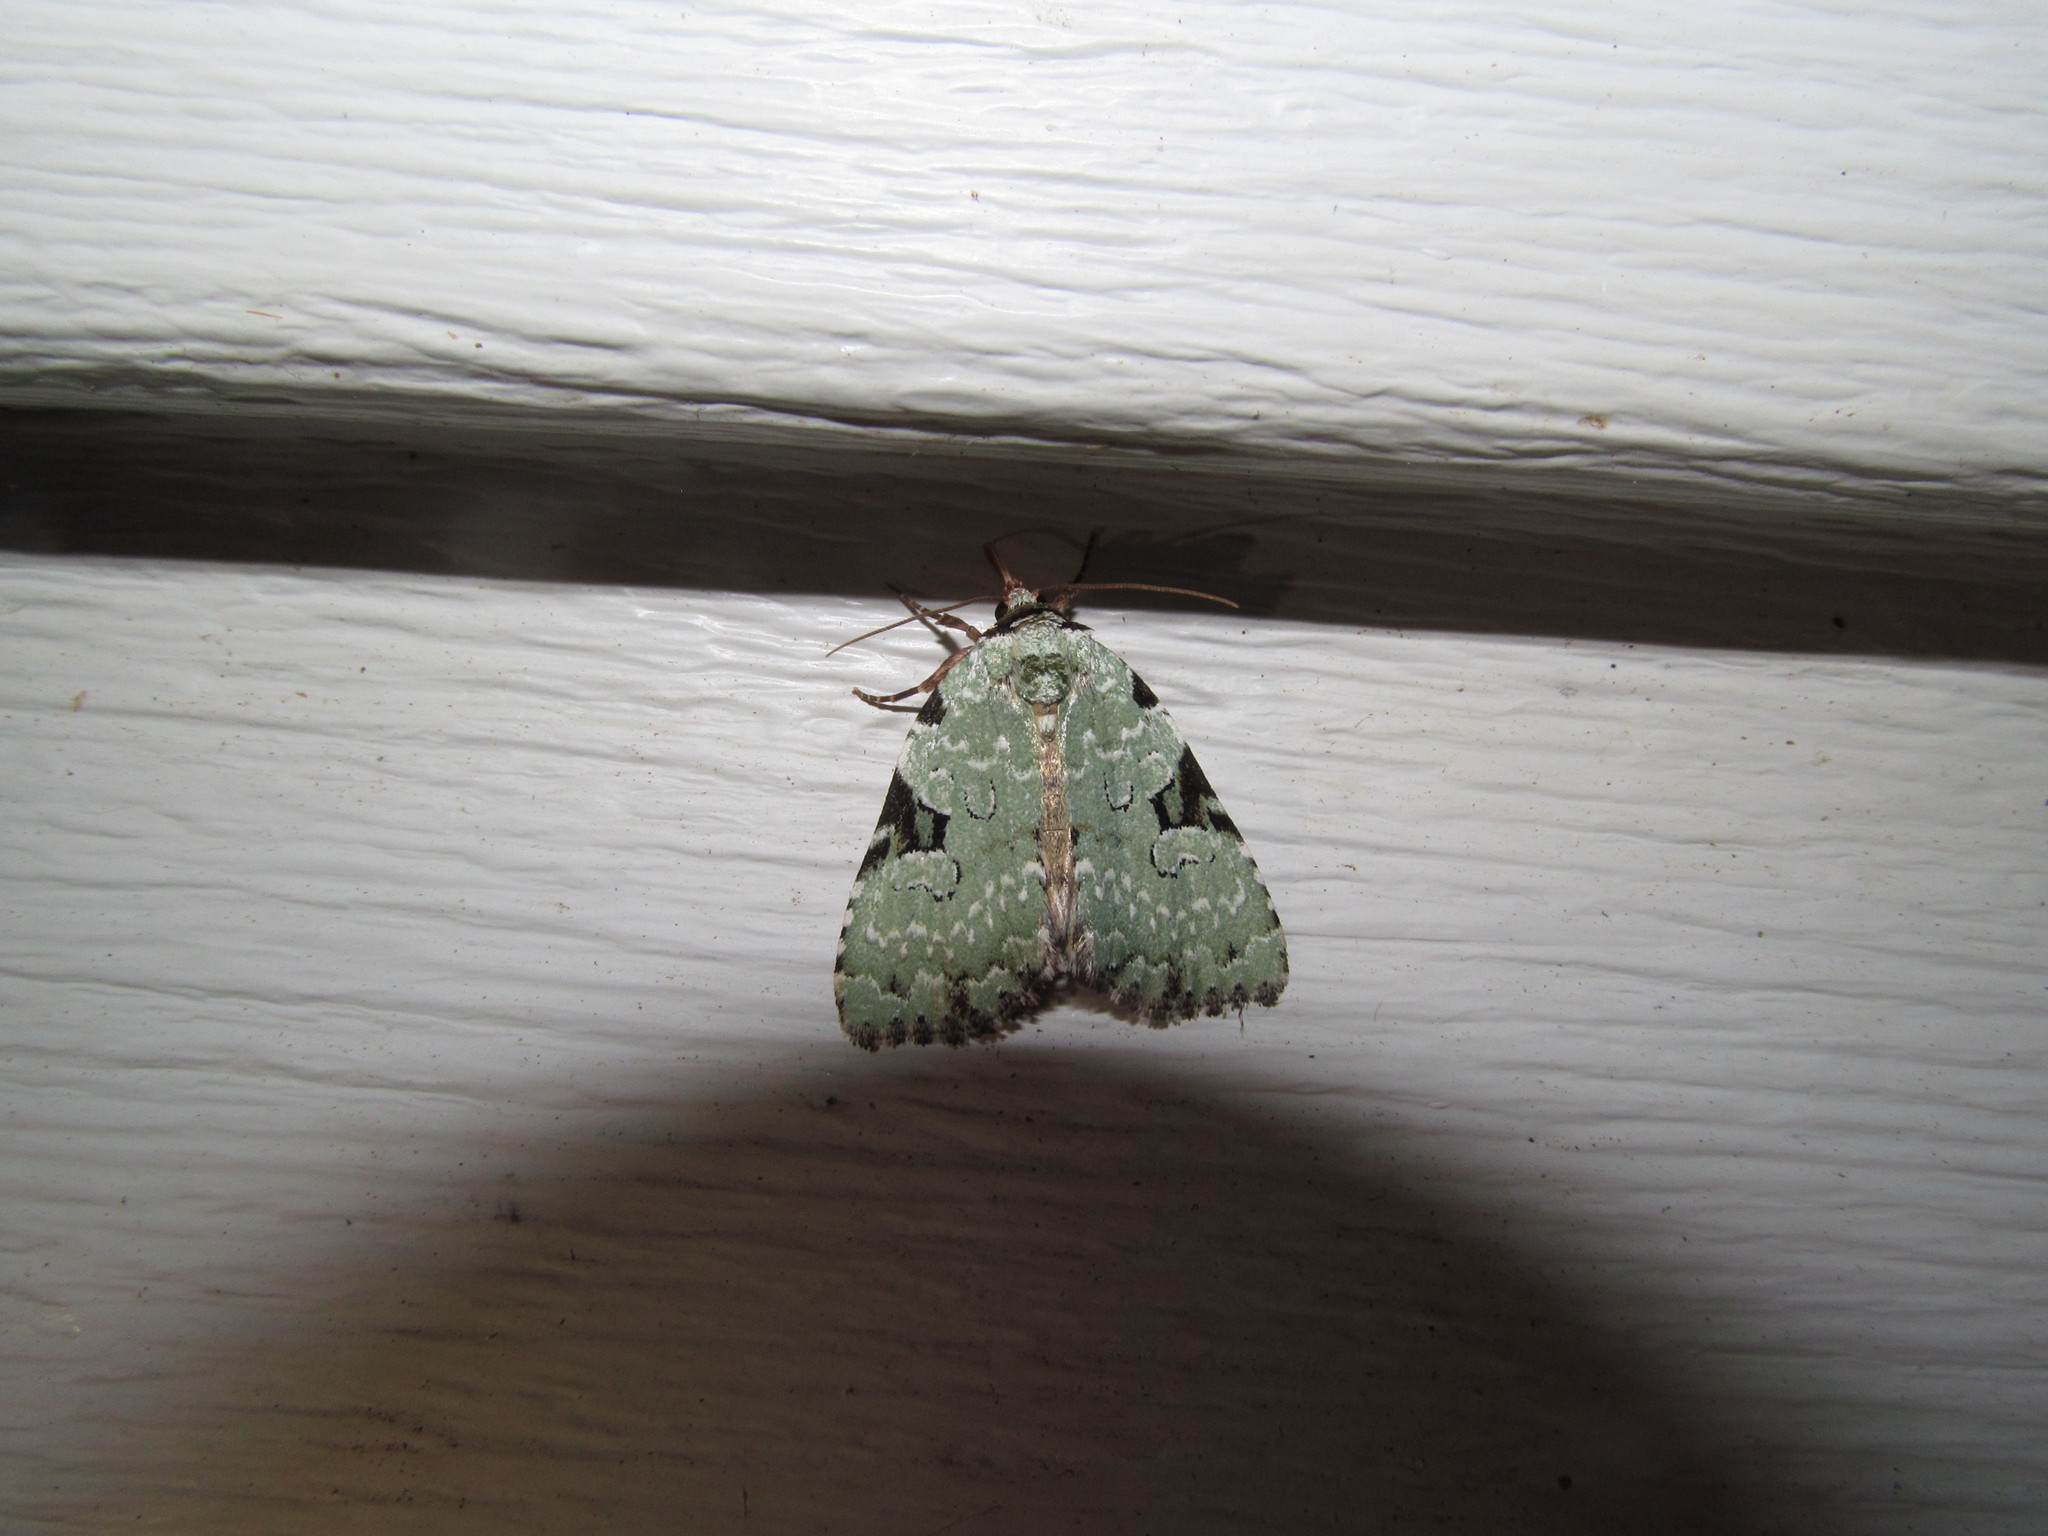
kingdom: Animalia
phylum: Arthropoda
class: Insecta
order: Lepidoptera
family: Noctuidae
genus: Leuconycta
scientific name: Leuconycta diphteroides
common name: Green leuconycta moth
